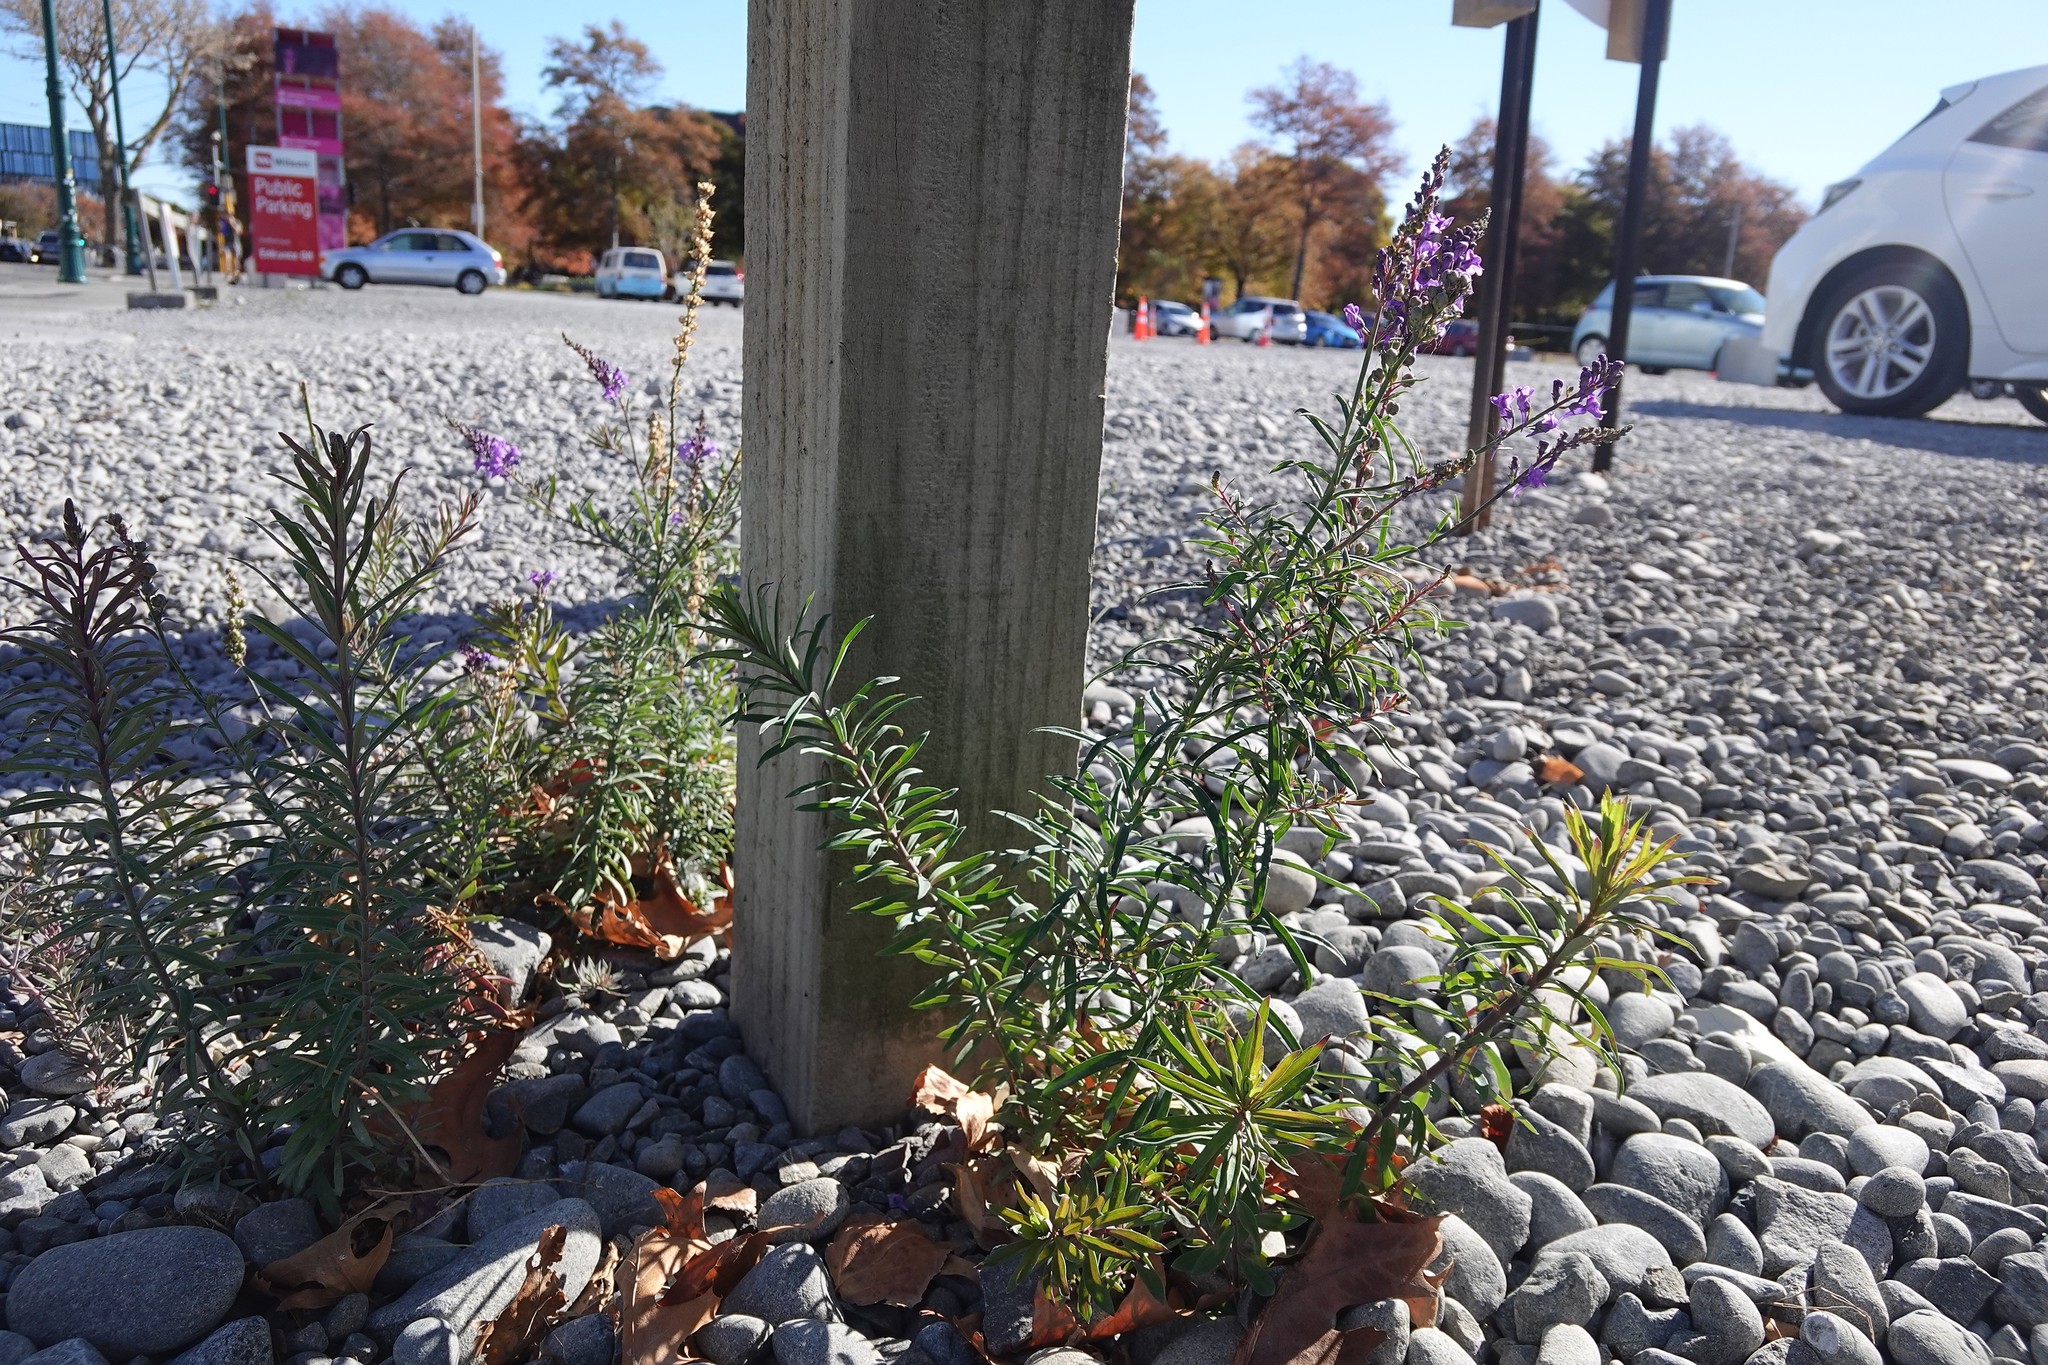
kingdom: Plantae
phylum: Tracheophyta
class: Magnoliopsida
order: Lamiales
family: Plantaginaceae
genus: Linaria
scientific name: Linaria purpurea
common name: Purple toadflax
